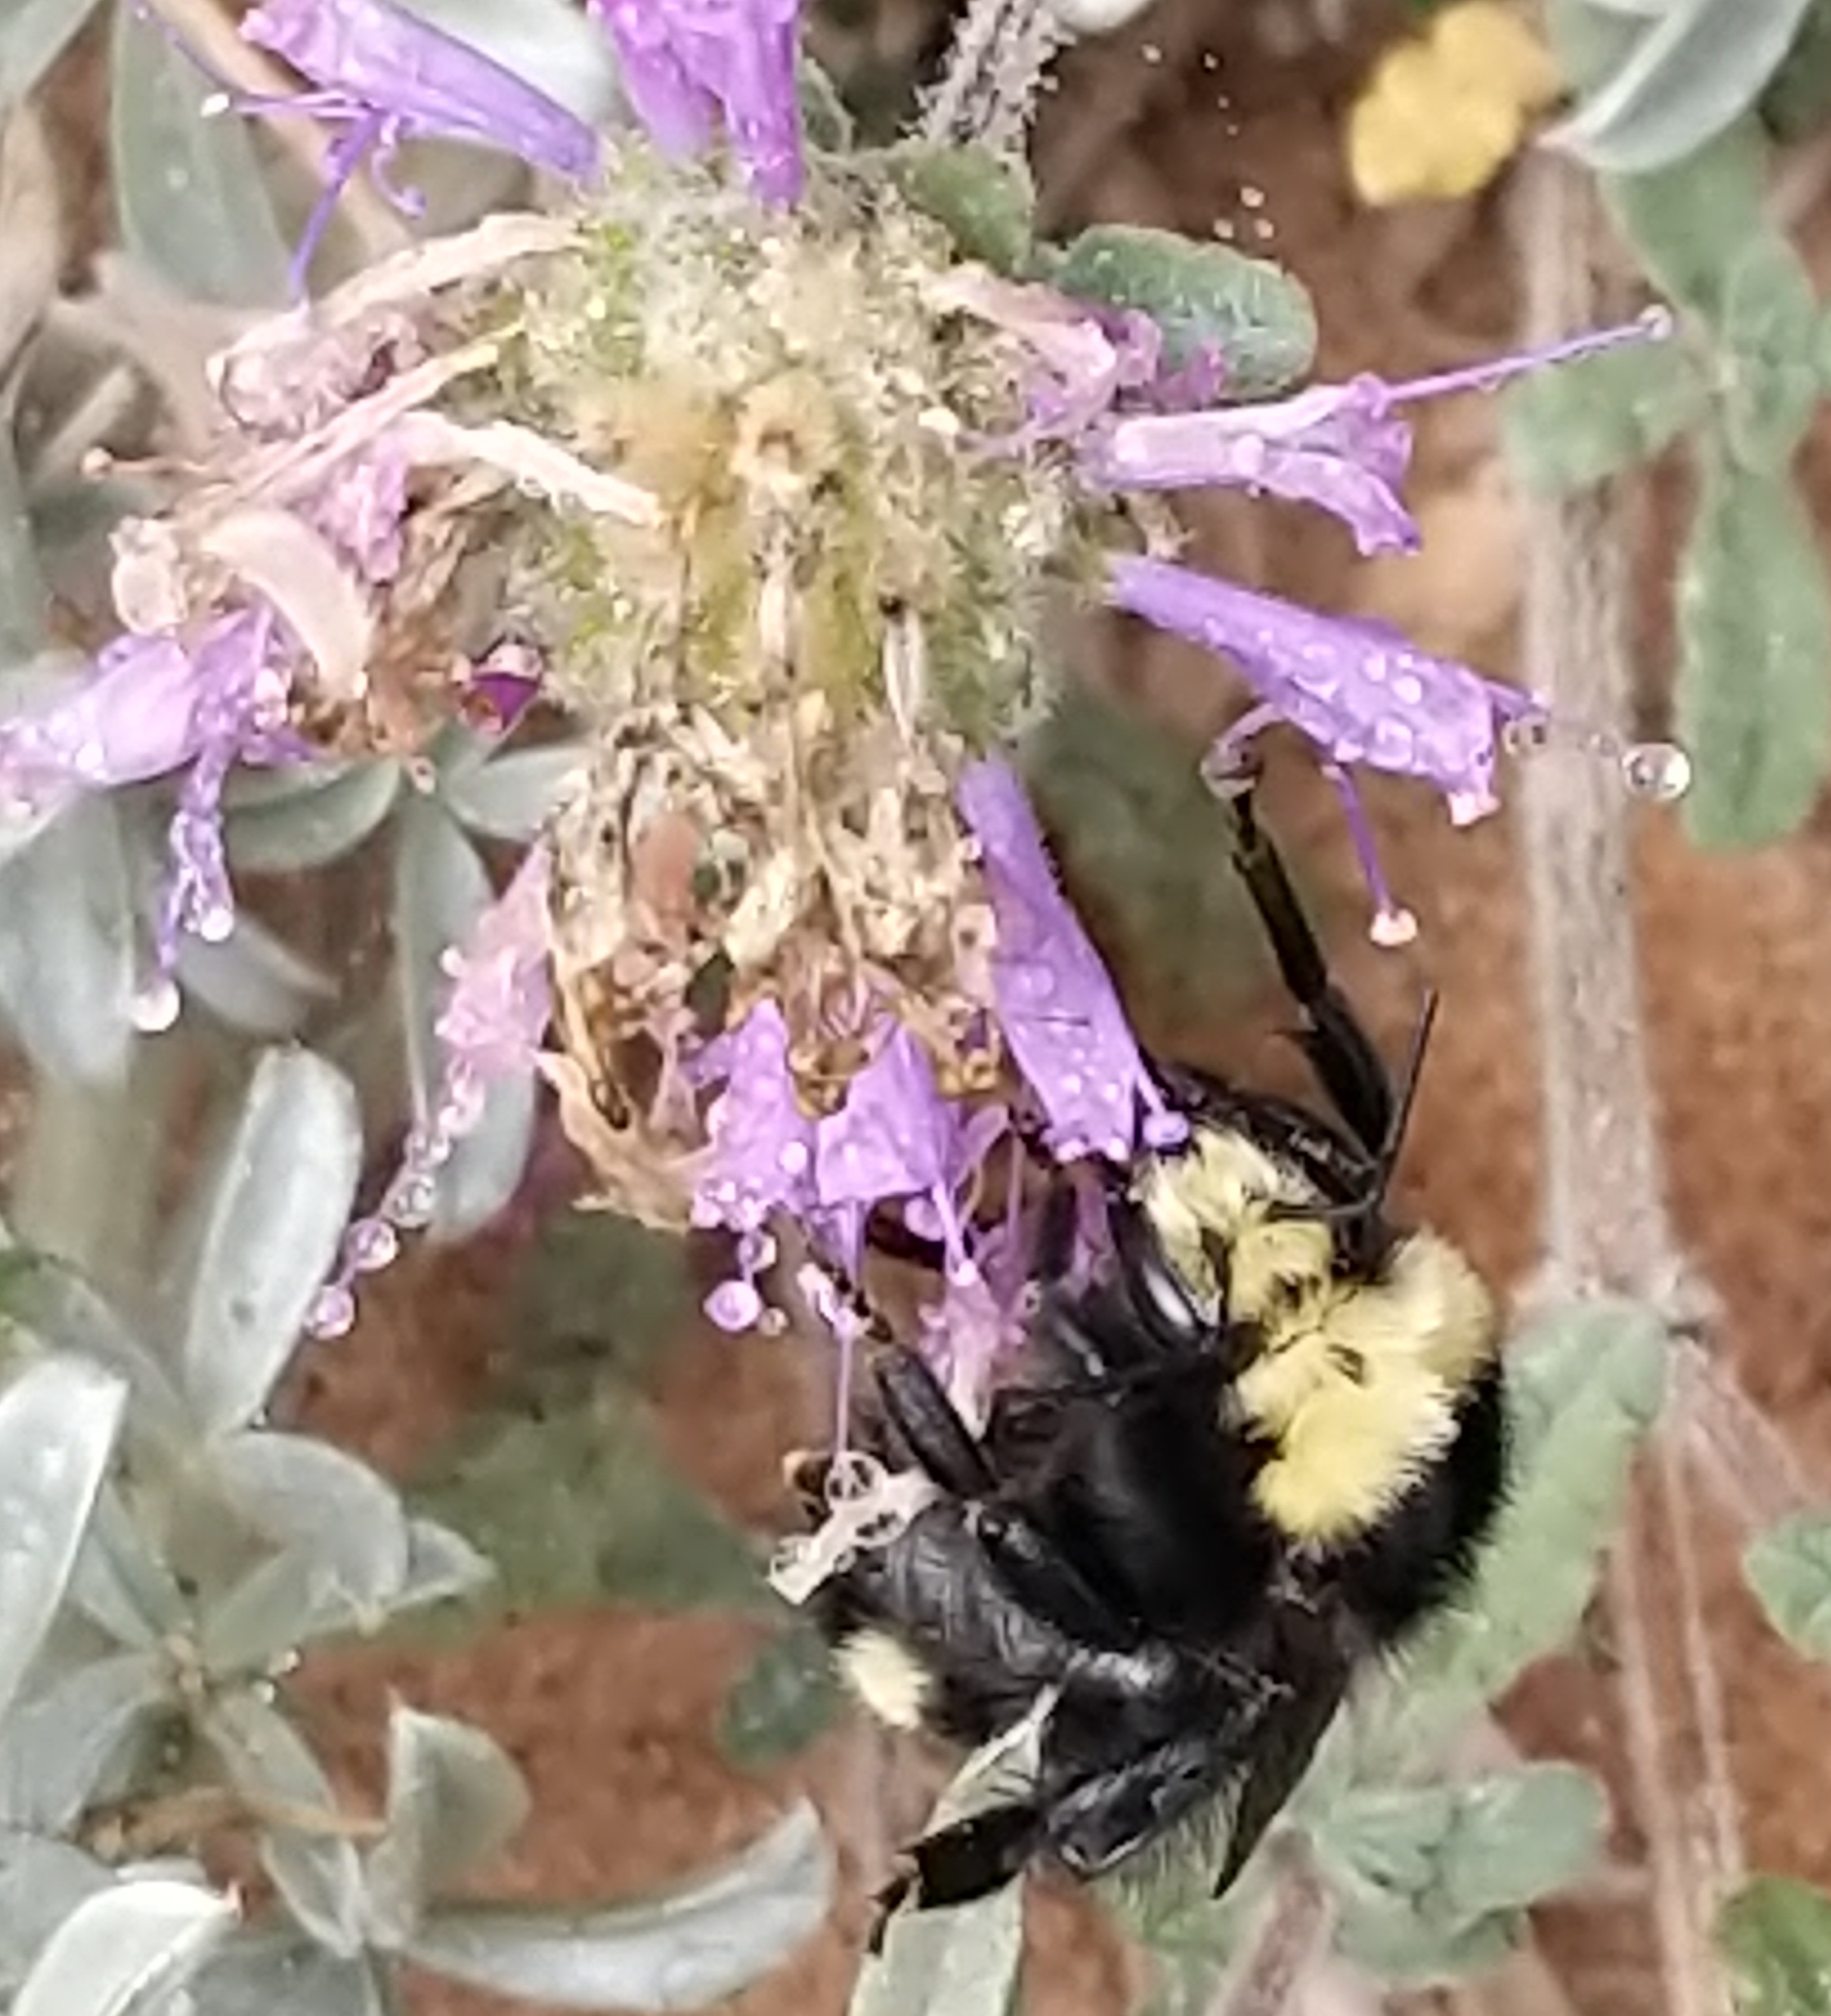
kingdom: Animalia
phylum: Arthropoda
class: Insecta
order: Hymenoptera
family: Apidae
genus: Bombus
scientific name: Bombus vosnesenskii
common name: Vosnesensky bumble bee
